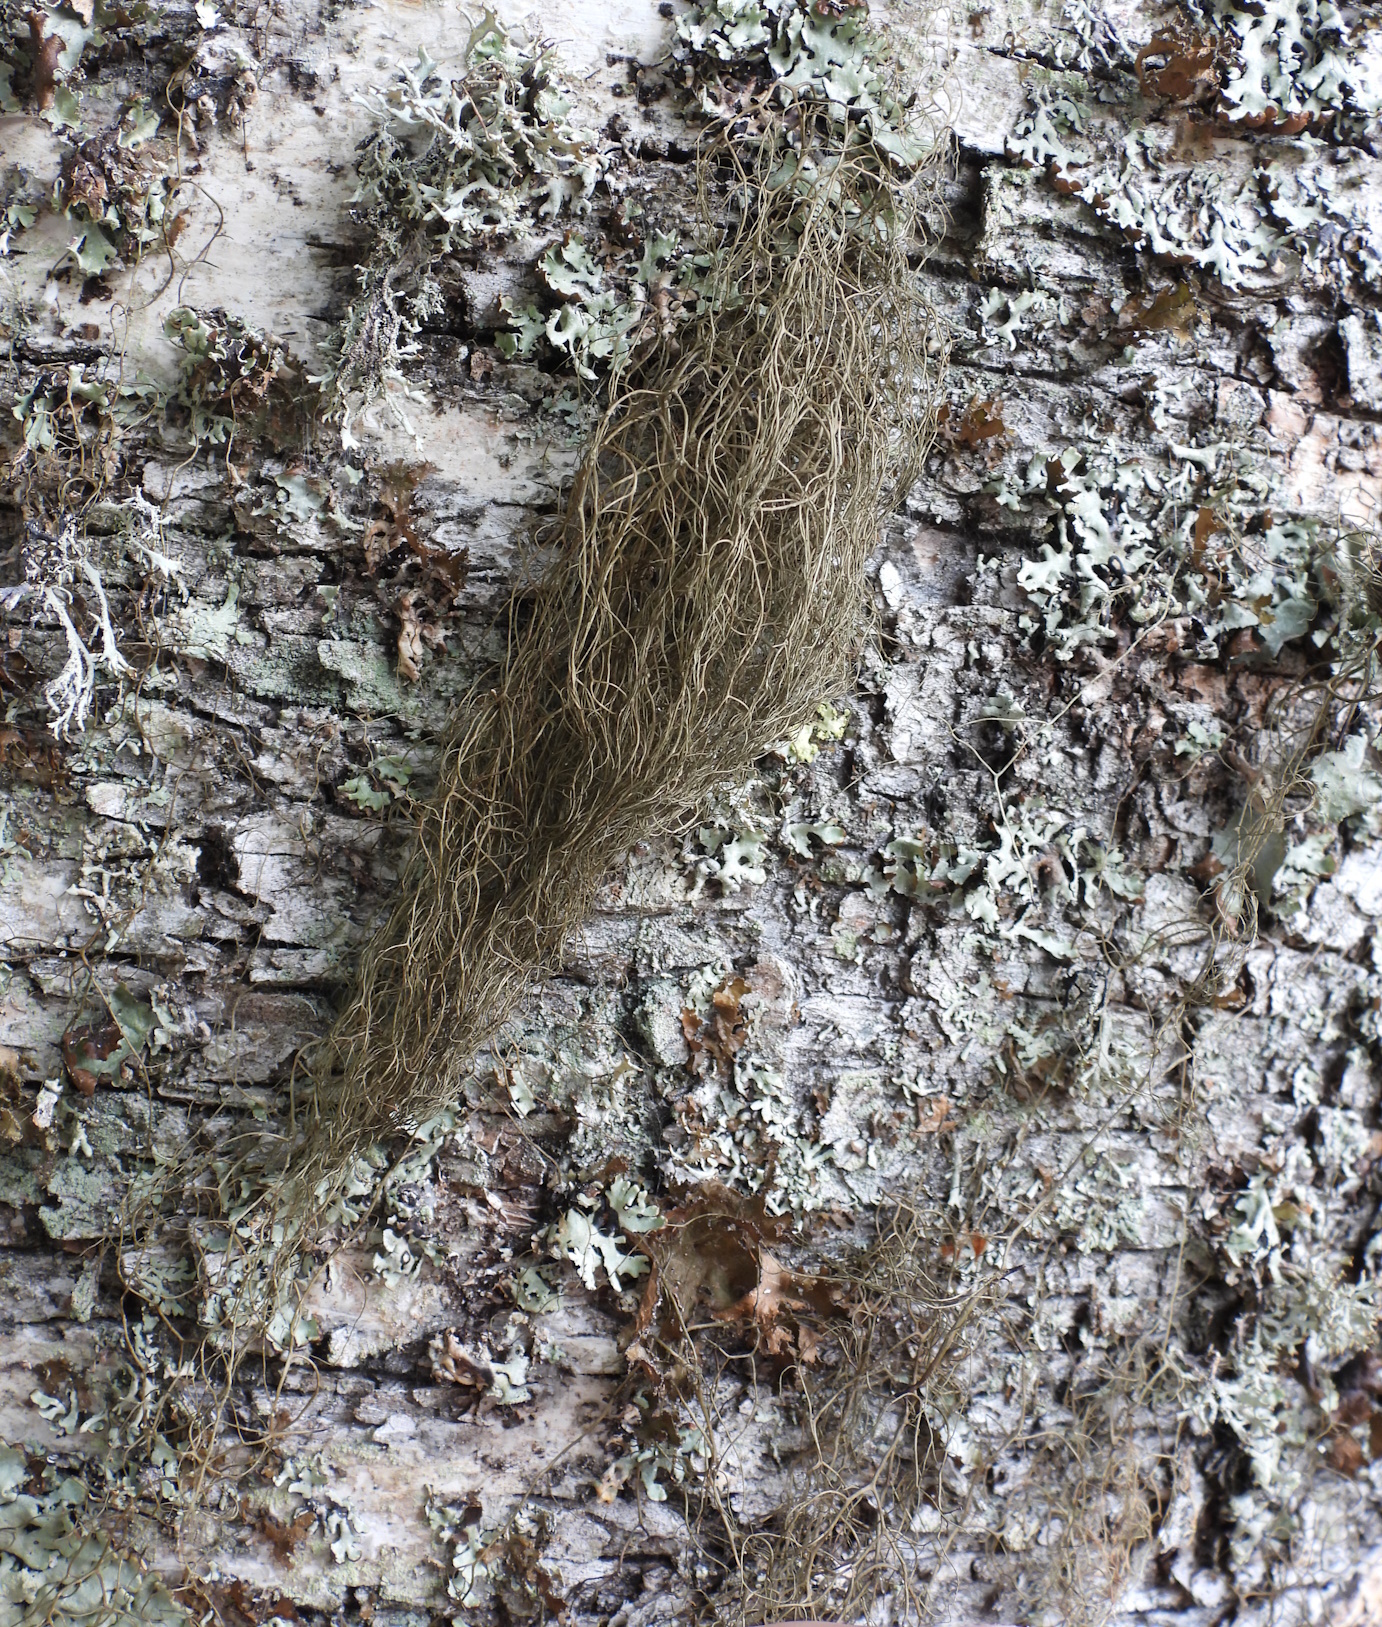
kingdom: Fungi
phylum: Ascomycota
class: Lecanoromycetes
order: Lecanorales
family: Parmeliaceae
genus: Bryoria
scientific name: Bryoria fuscescens
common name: Pale-footed horsehair lichen
